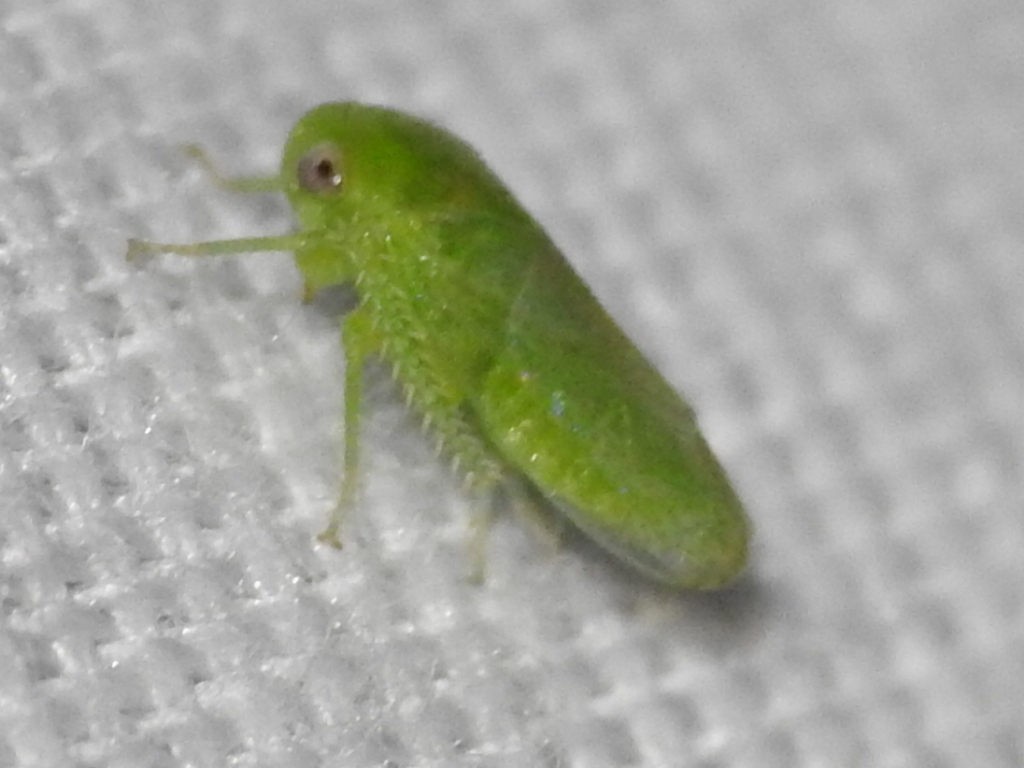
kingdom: Animalia
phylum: Arthropoda
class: Insecta
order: Hemiptera
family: Cicadellidae
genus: Penestragania
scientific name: Penestragania robusta
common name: Robust leafhopper
